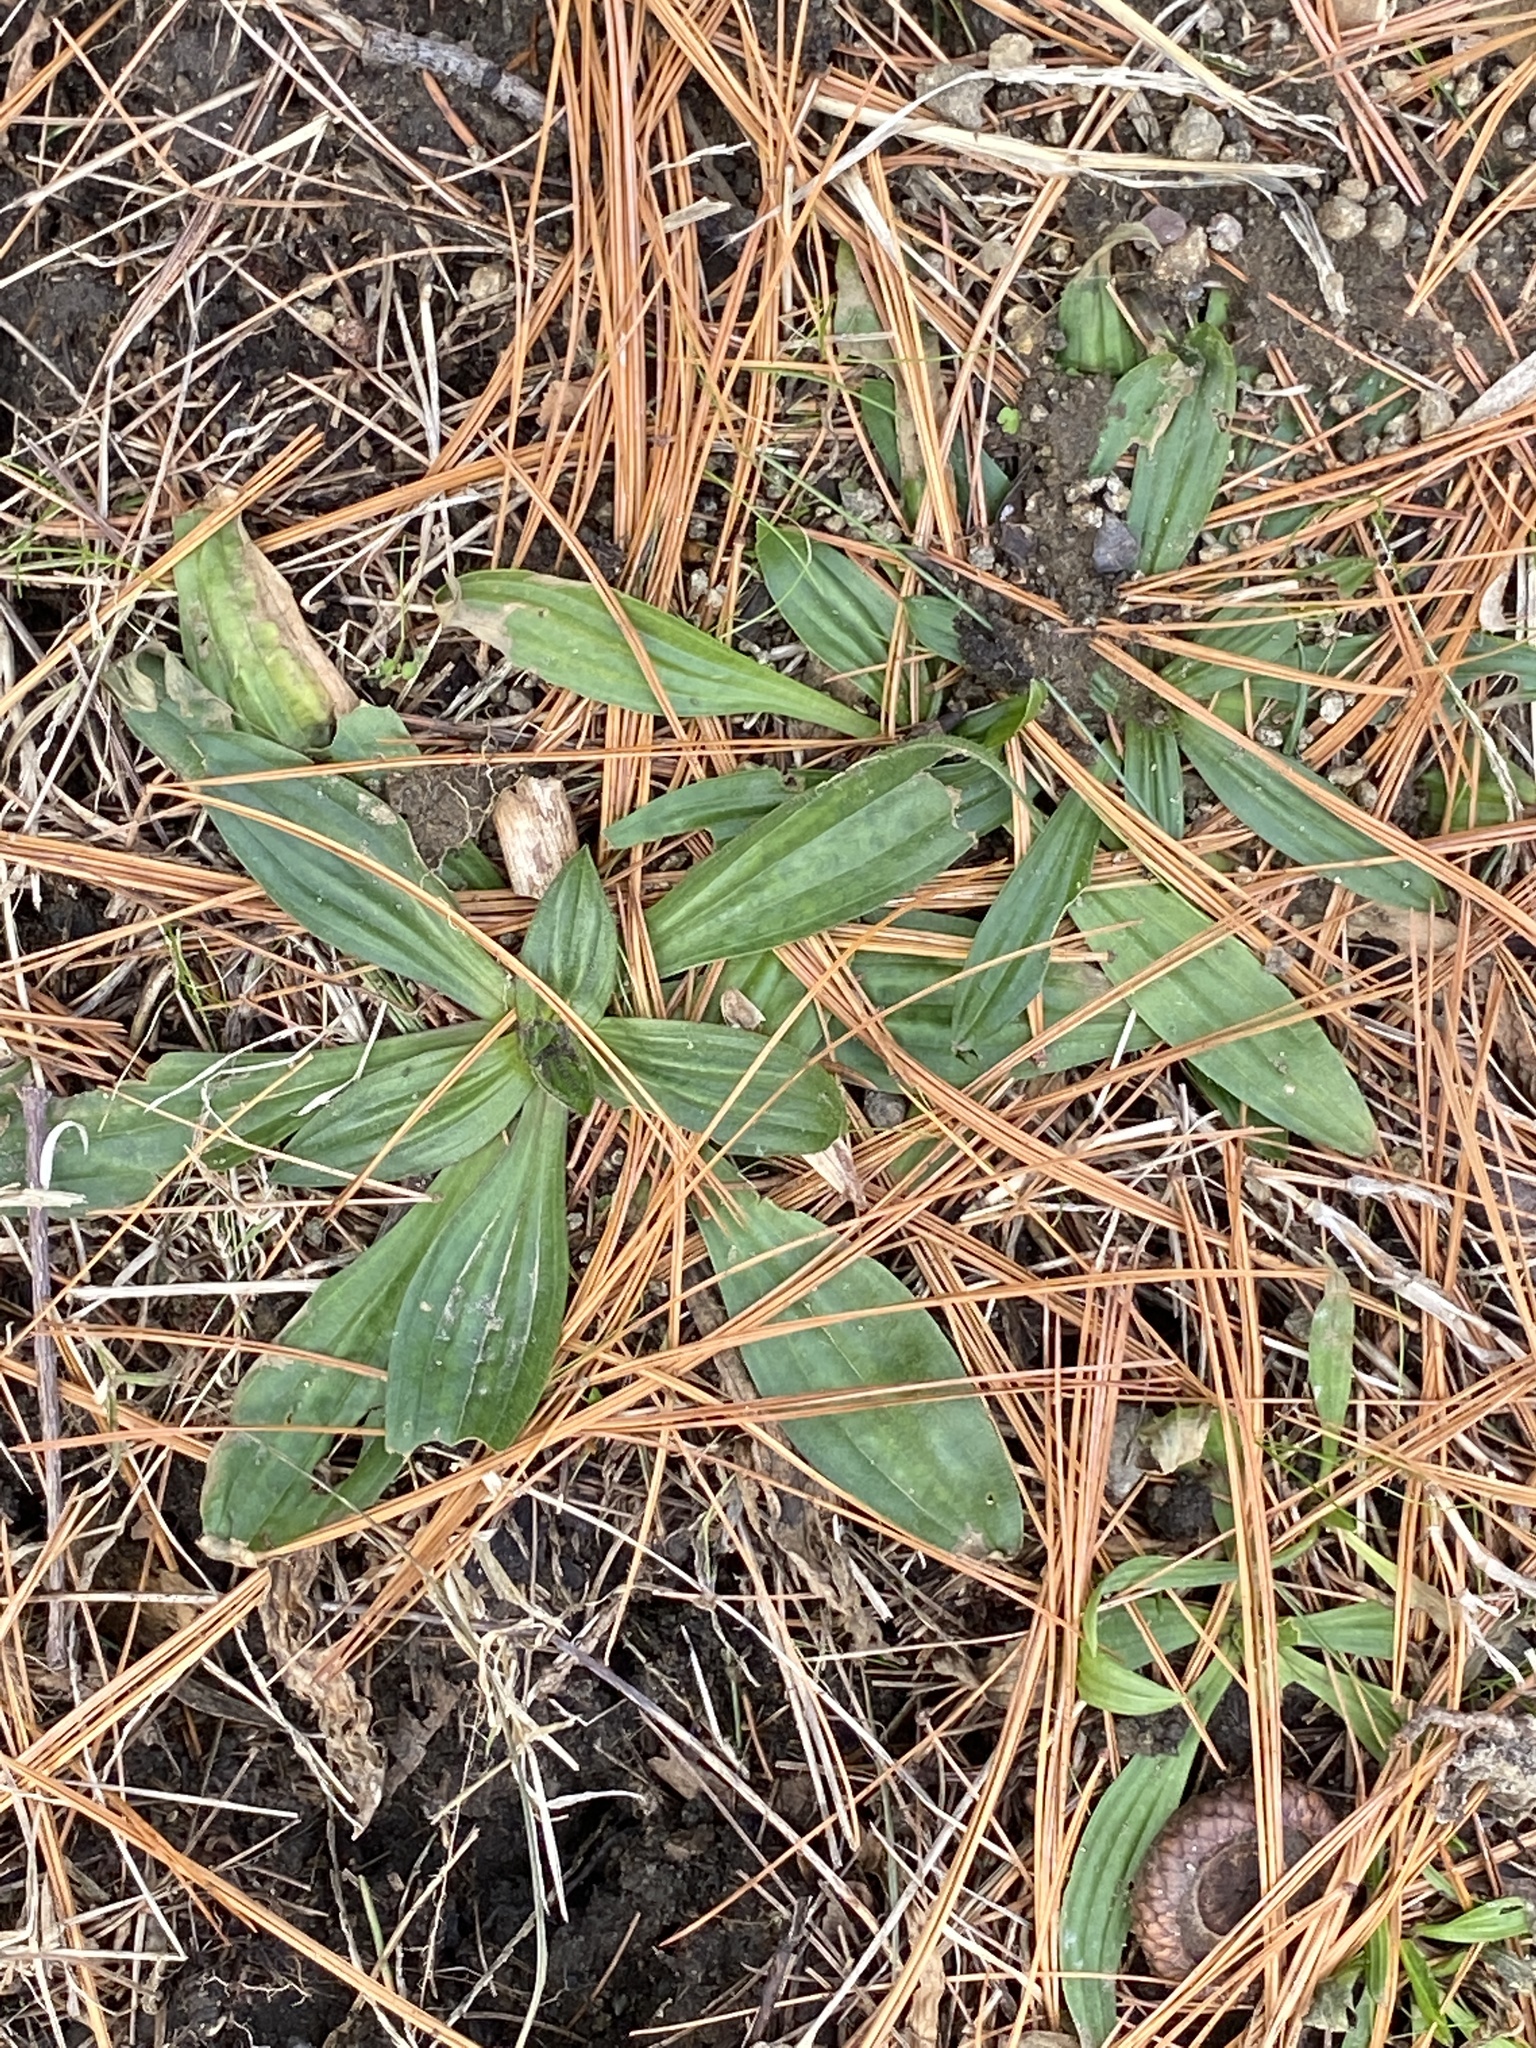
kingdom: Plantae
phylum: Tracheophyta
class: Magnoliopsida
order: Lamiales
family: Plantaginaceae
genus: Plantago
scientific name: Plantago lanceolata
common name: Ribwort plantain
